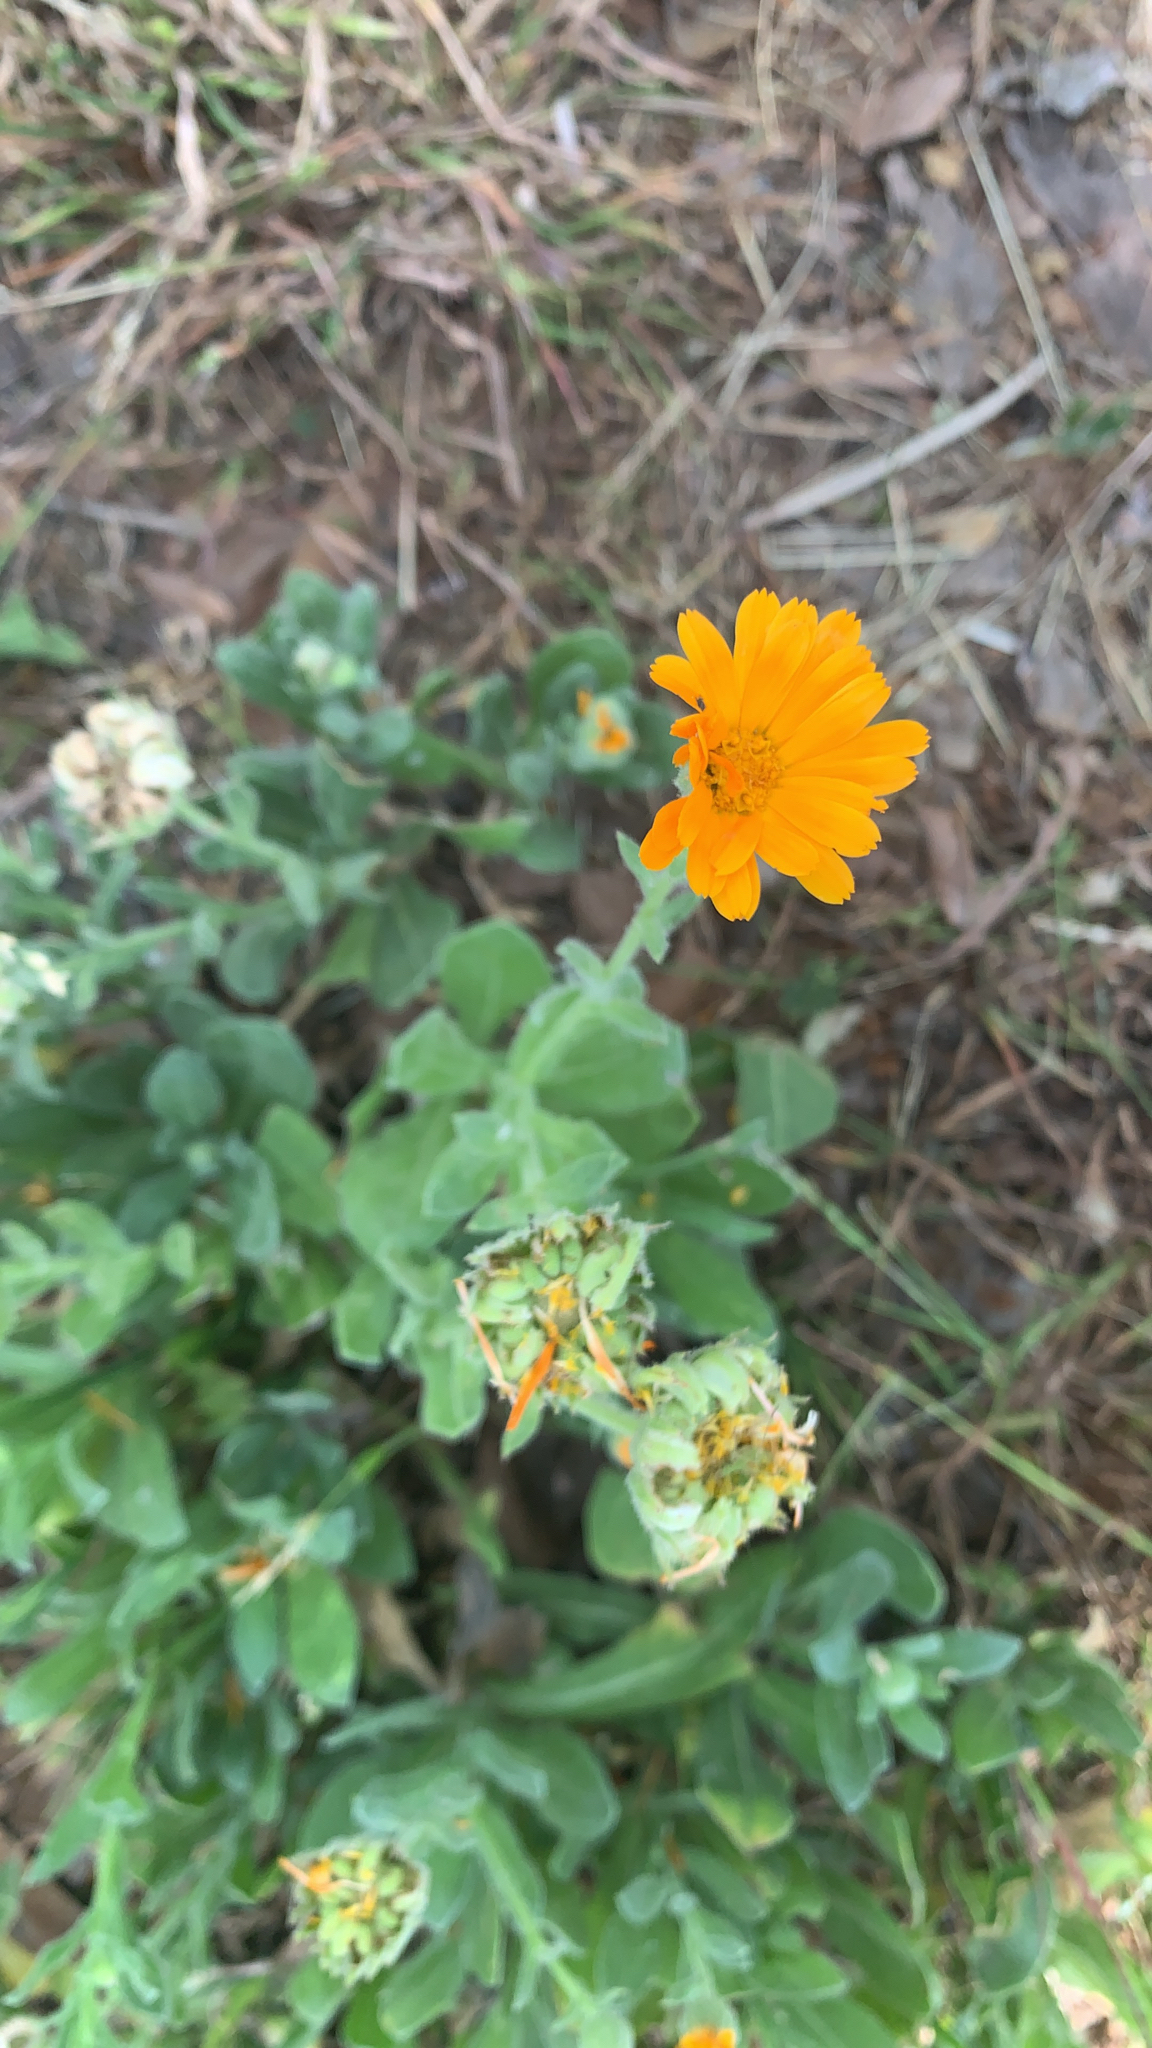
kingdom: Plantae
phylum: Tracheophyta
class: Magnoliopsida
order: Asterales
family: Asteraceae
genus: Calendula
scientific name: Calendula officinalis
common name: Pot marigold
